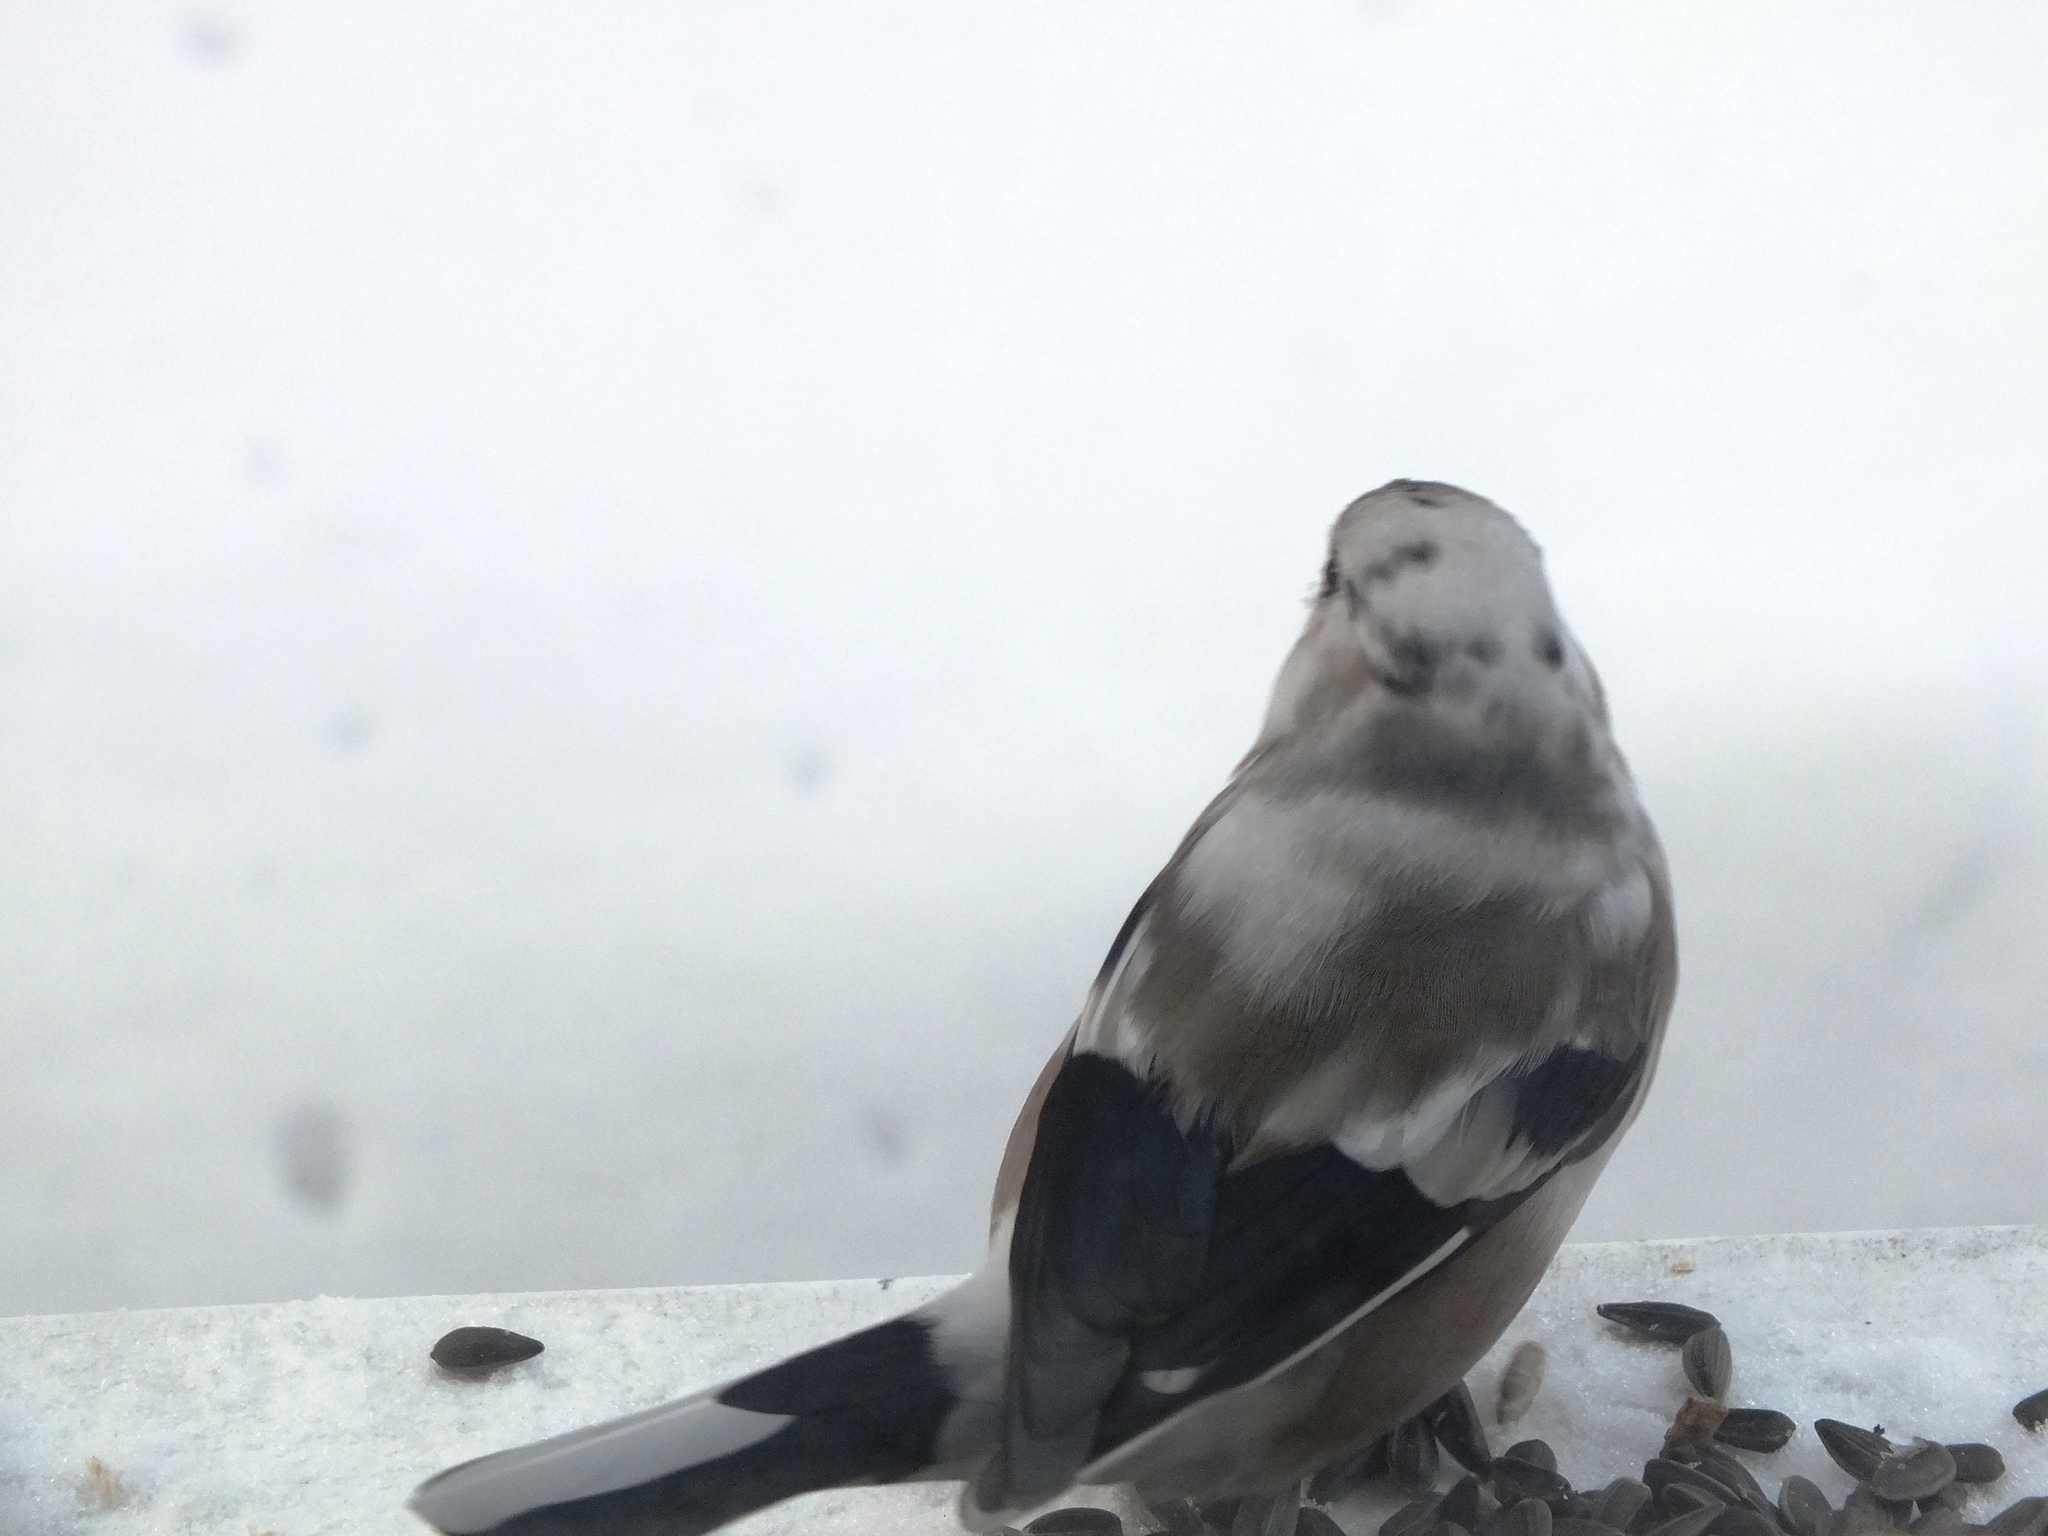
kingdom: Animalia
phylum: Chordata
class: Aves
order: Passeriformes
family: Fringillidae
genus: Pyrrhula
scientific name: Pyrrhula pyrrhula
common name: Eurasian bullfinch
